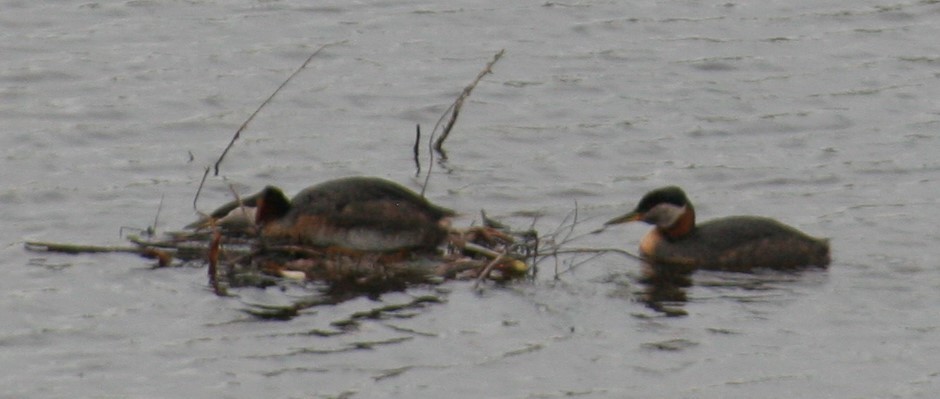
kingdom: Animalia
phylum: Chordata
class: Aves
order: Podicipediformes
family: Podicipedidae
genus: Podiceps
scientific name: Podiceps grisegena
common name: Red-necked grebe
